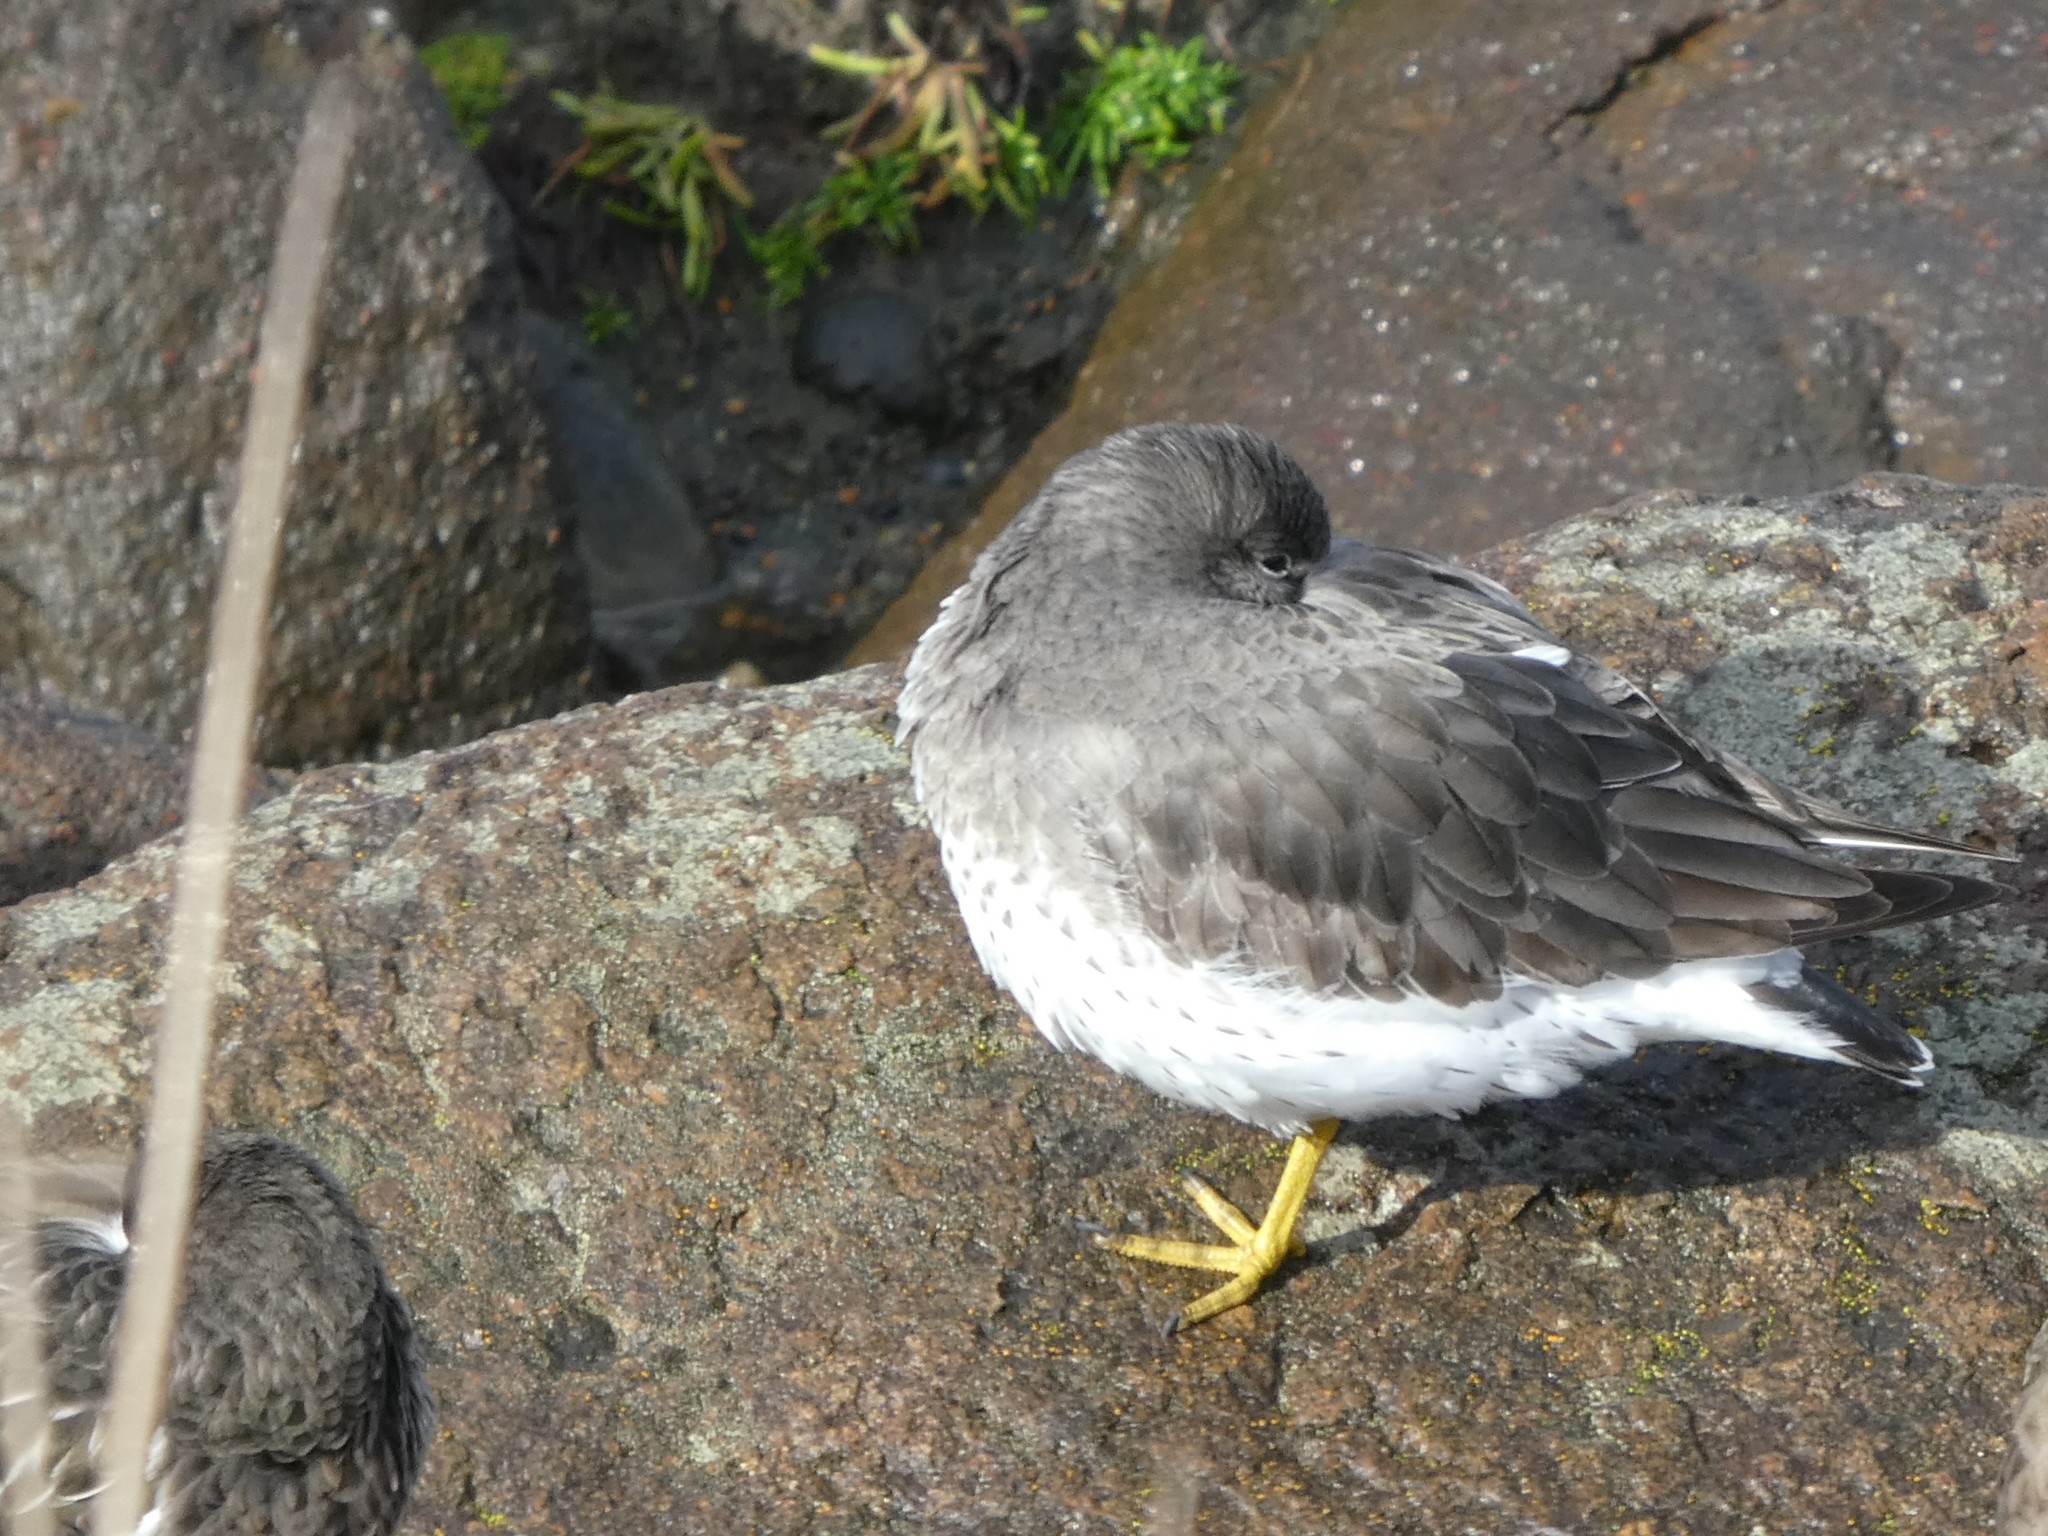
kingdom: Animalia
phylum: Chordata
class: Aves
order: Charadriiformes
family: Scolopacidae
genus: Calidris
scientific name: Calidris virgata
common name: Surfbird
